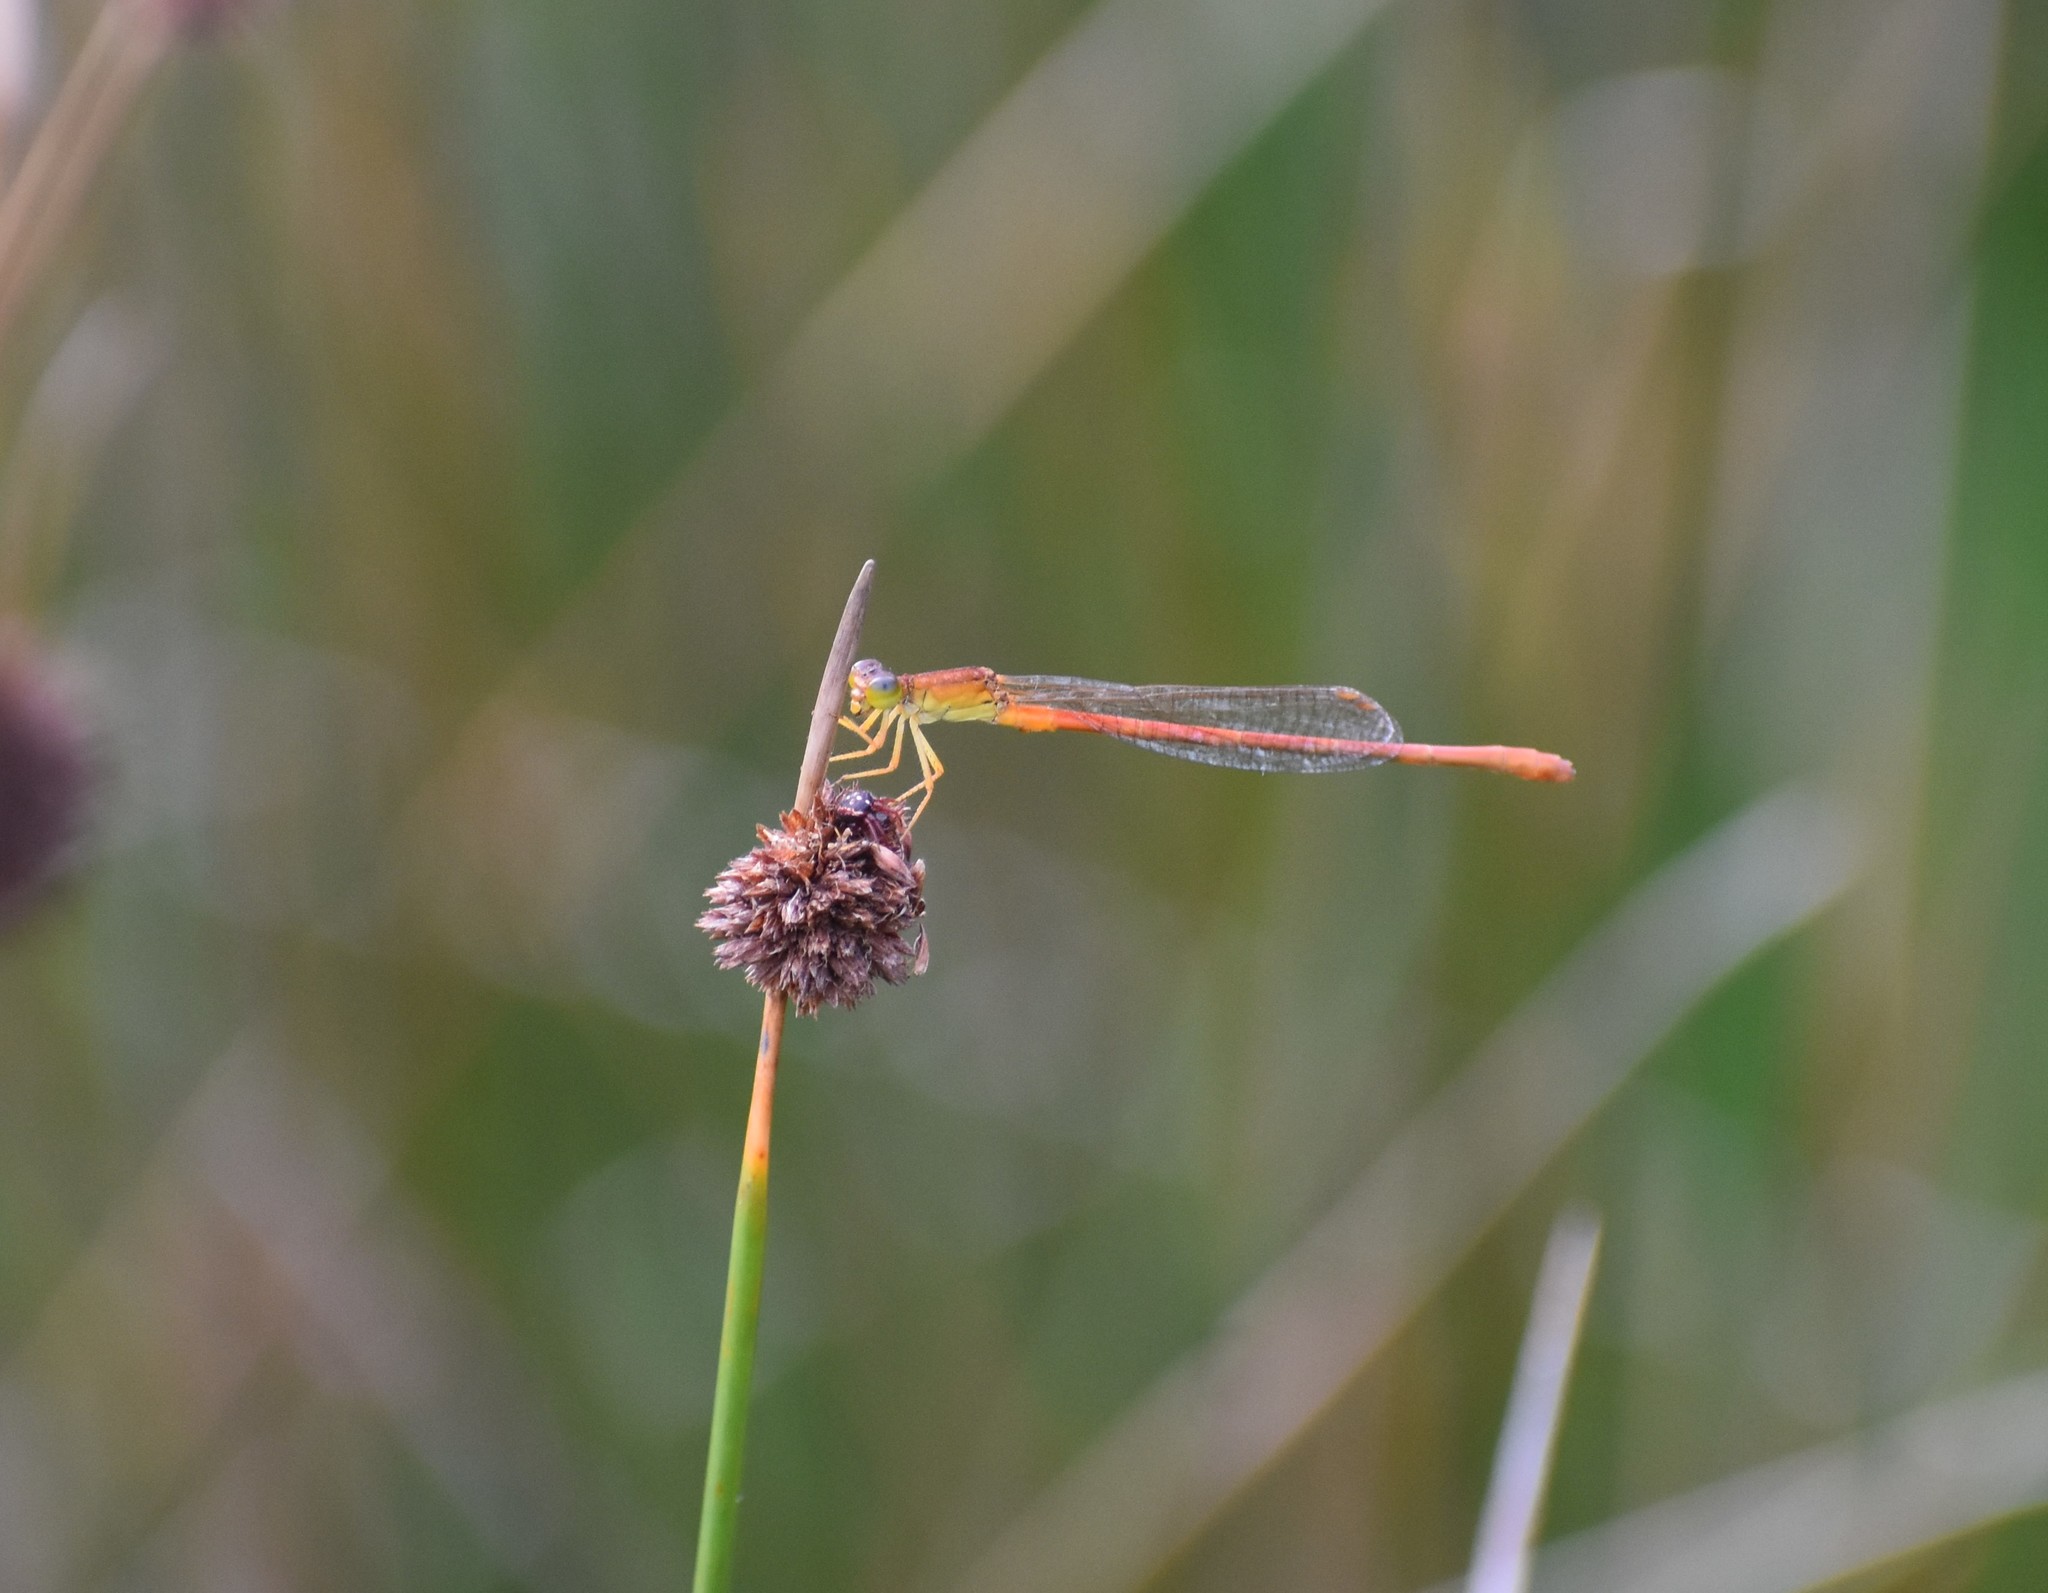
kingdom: Animalia
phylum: Arthropoda
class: Insecta
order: Odonata
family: Coenagrionidae
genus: Ceriagrion
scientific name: Ceriagrion glabrum
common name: Common pond damsel
